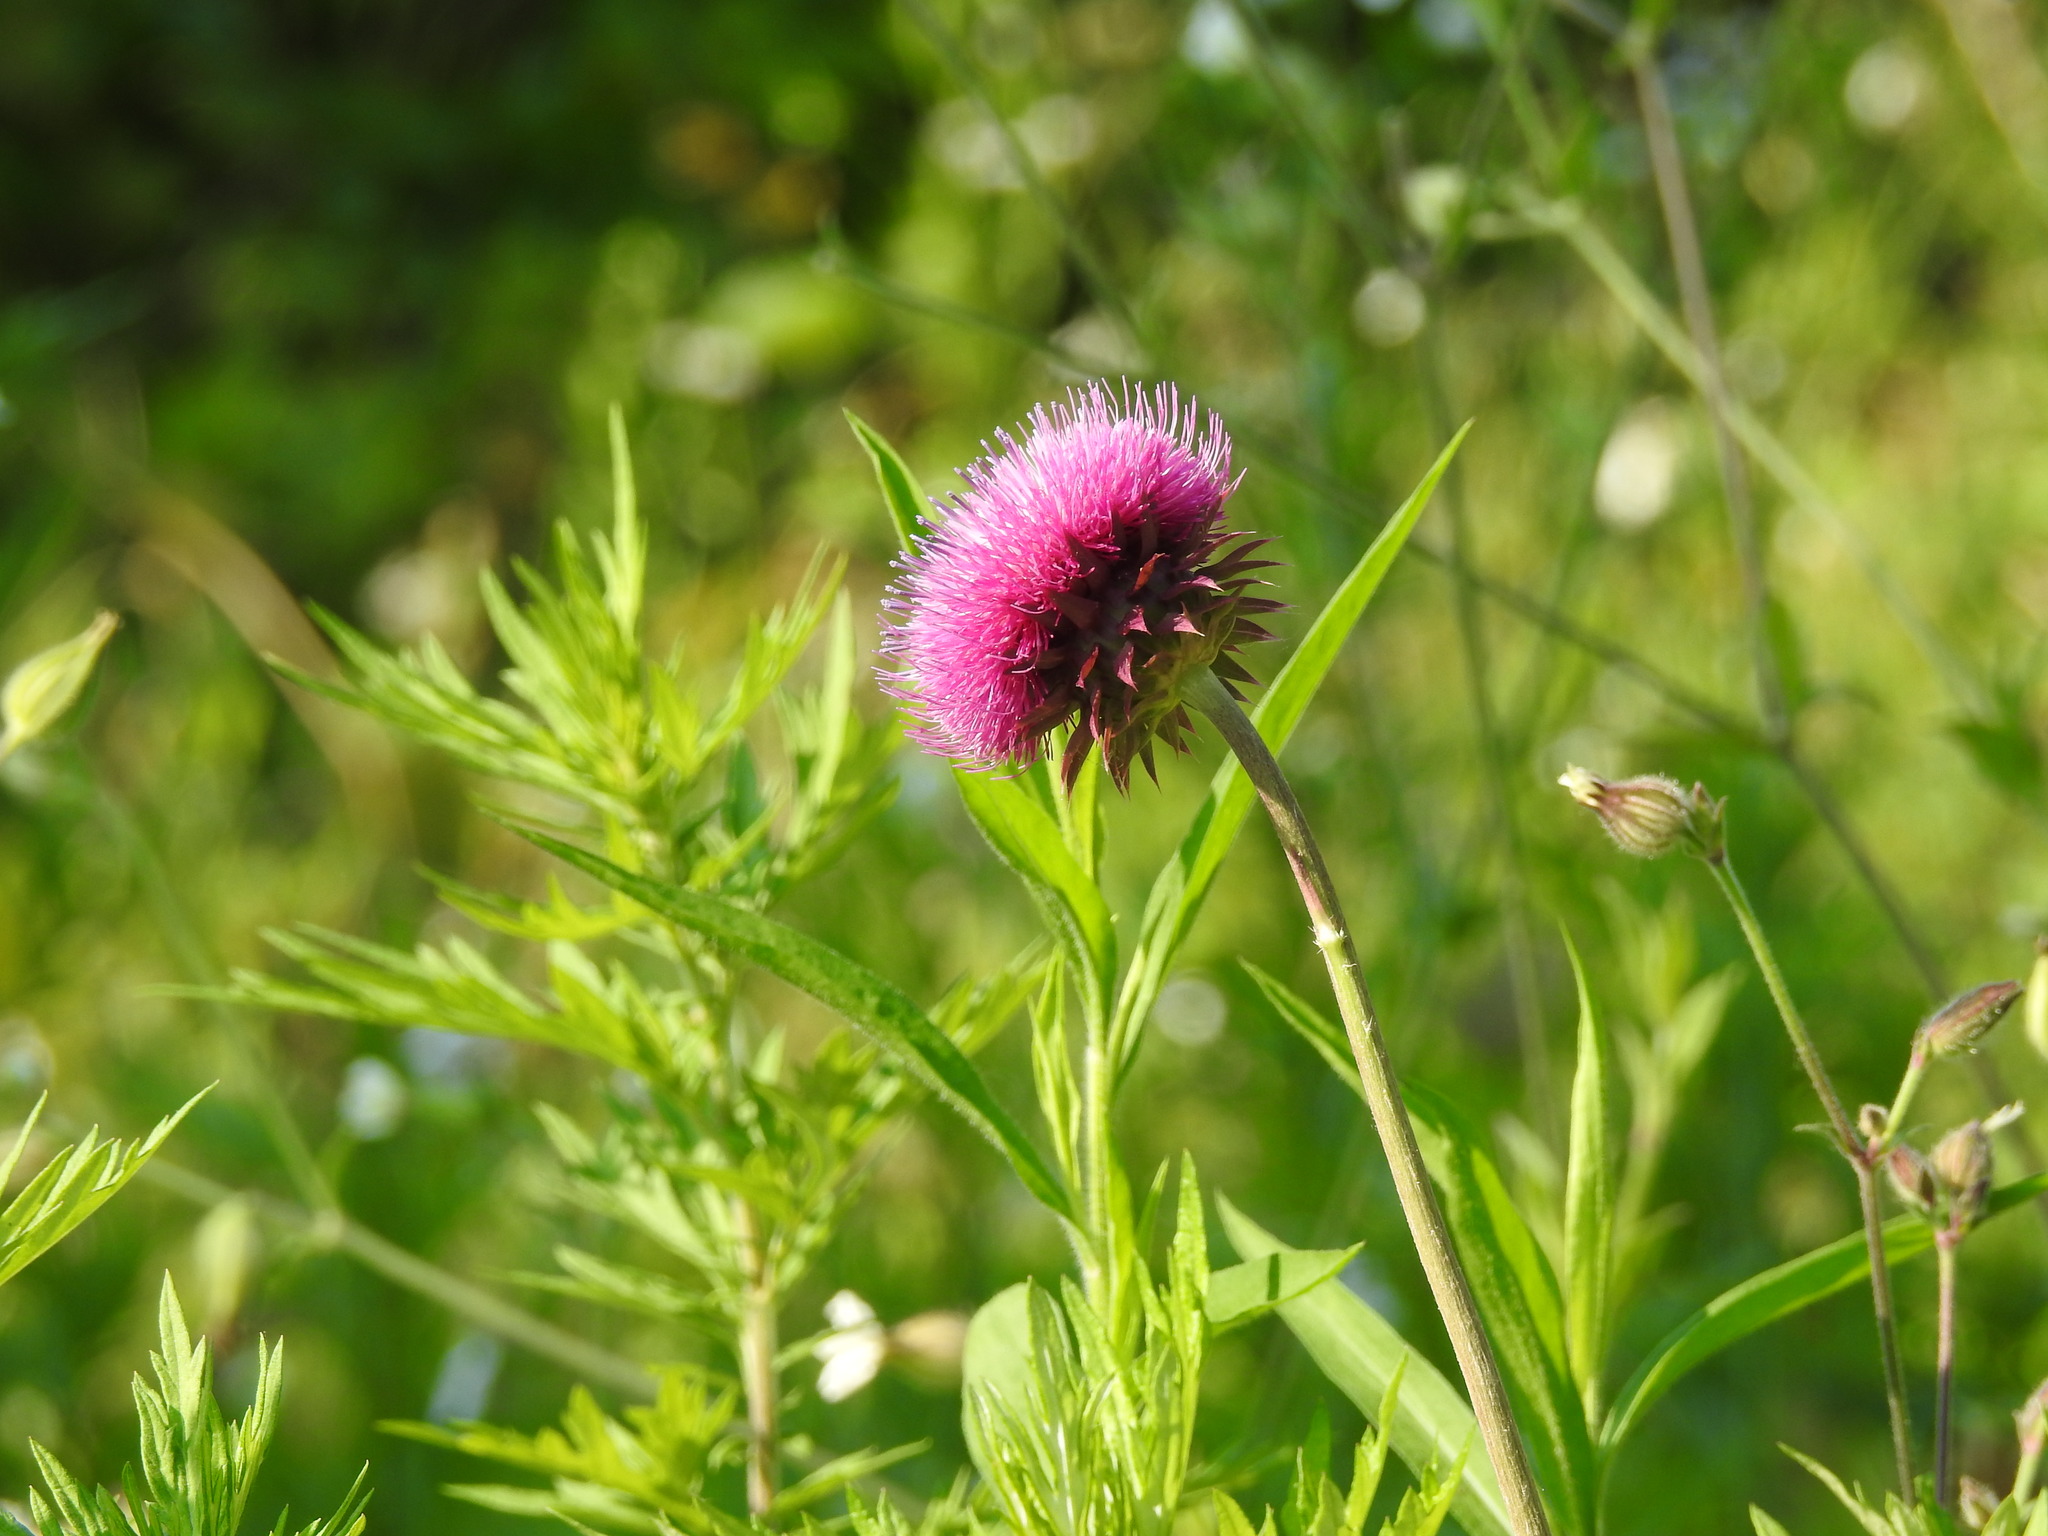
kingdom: Plantae
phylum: Tracheophyta
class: Magnoliopsida
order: Asterales
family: Asteraceae
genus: Carduus
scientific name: Carduus nutans
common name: Musk thistle
